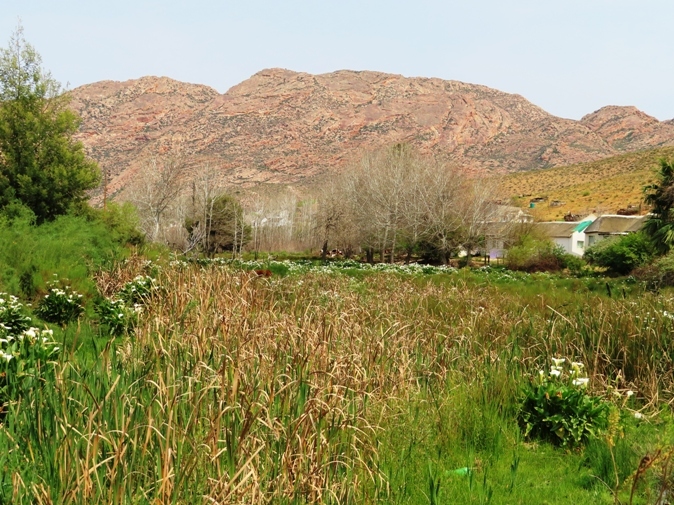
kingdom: Plantae
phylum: Tracheophyta
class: Liliopsida
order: Alismatales
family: Araceae
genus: Zantedeschia
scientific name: Zantedeschia aethiopica
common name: Altar-lily
